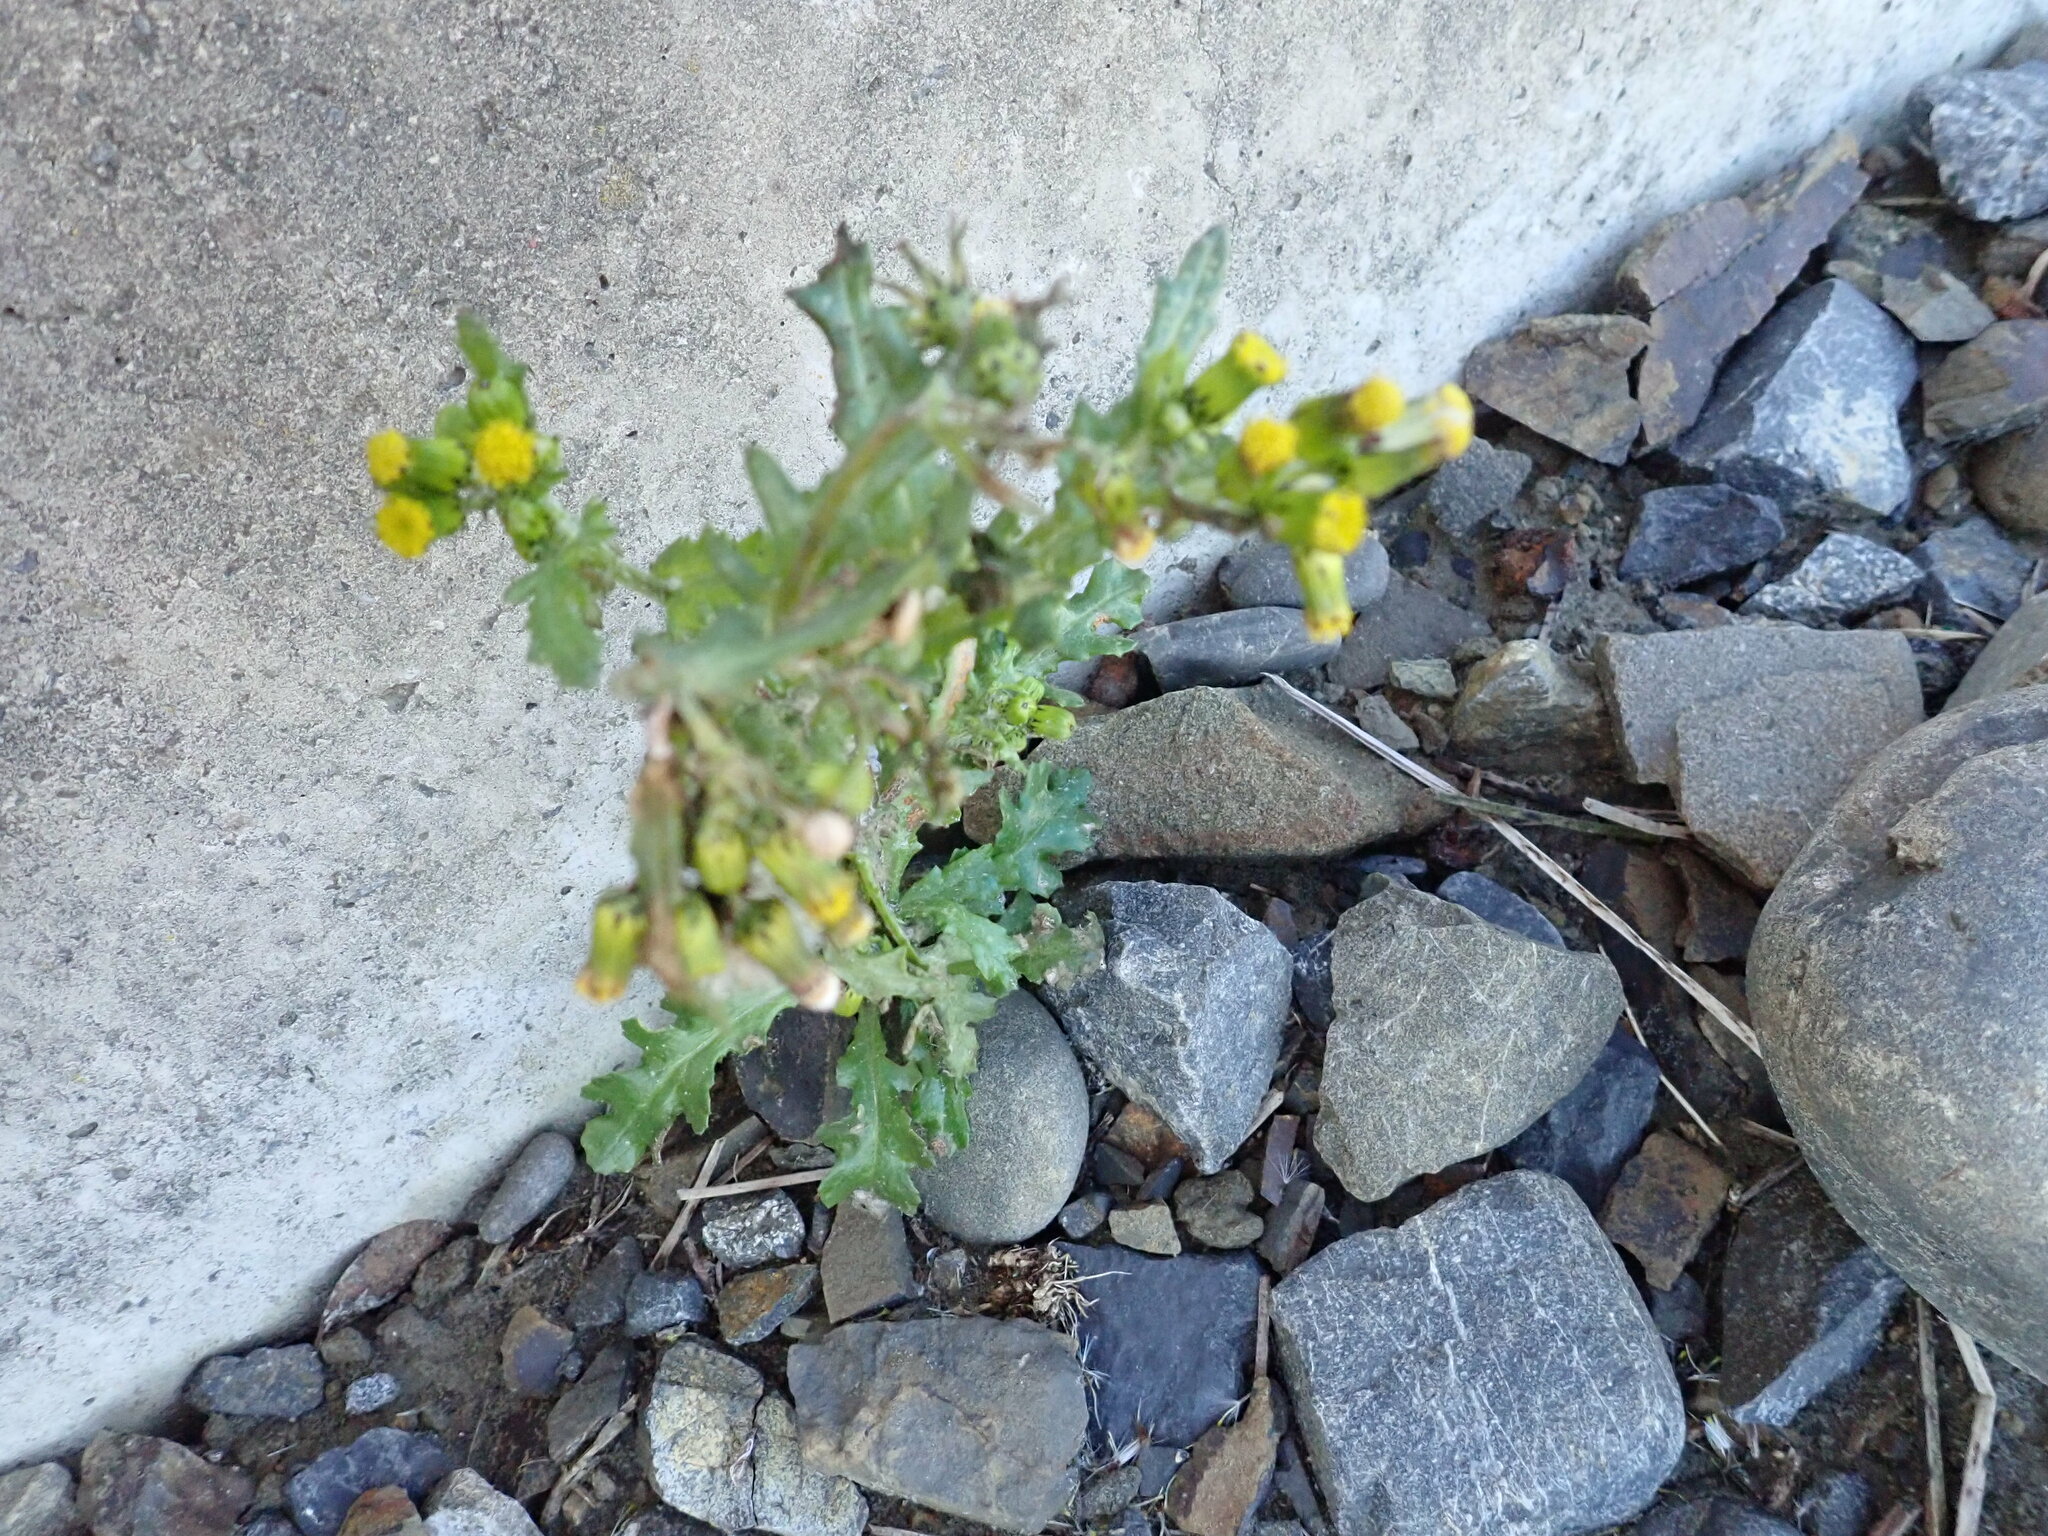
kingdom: Plantae
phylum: Tracheophyta
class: Magnoliopsida
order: Asterales
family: Asteraceae
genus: Senecio
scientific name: Senecio vulgaris
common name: Old-man-in-the-spring
